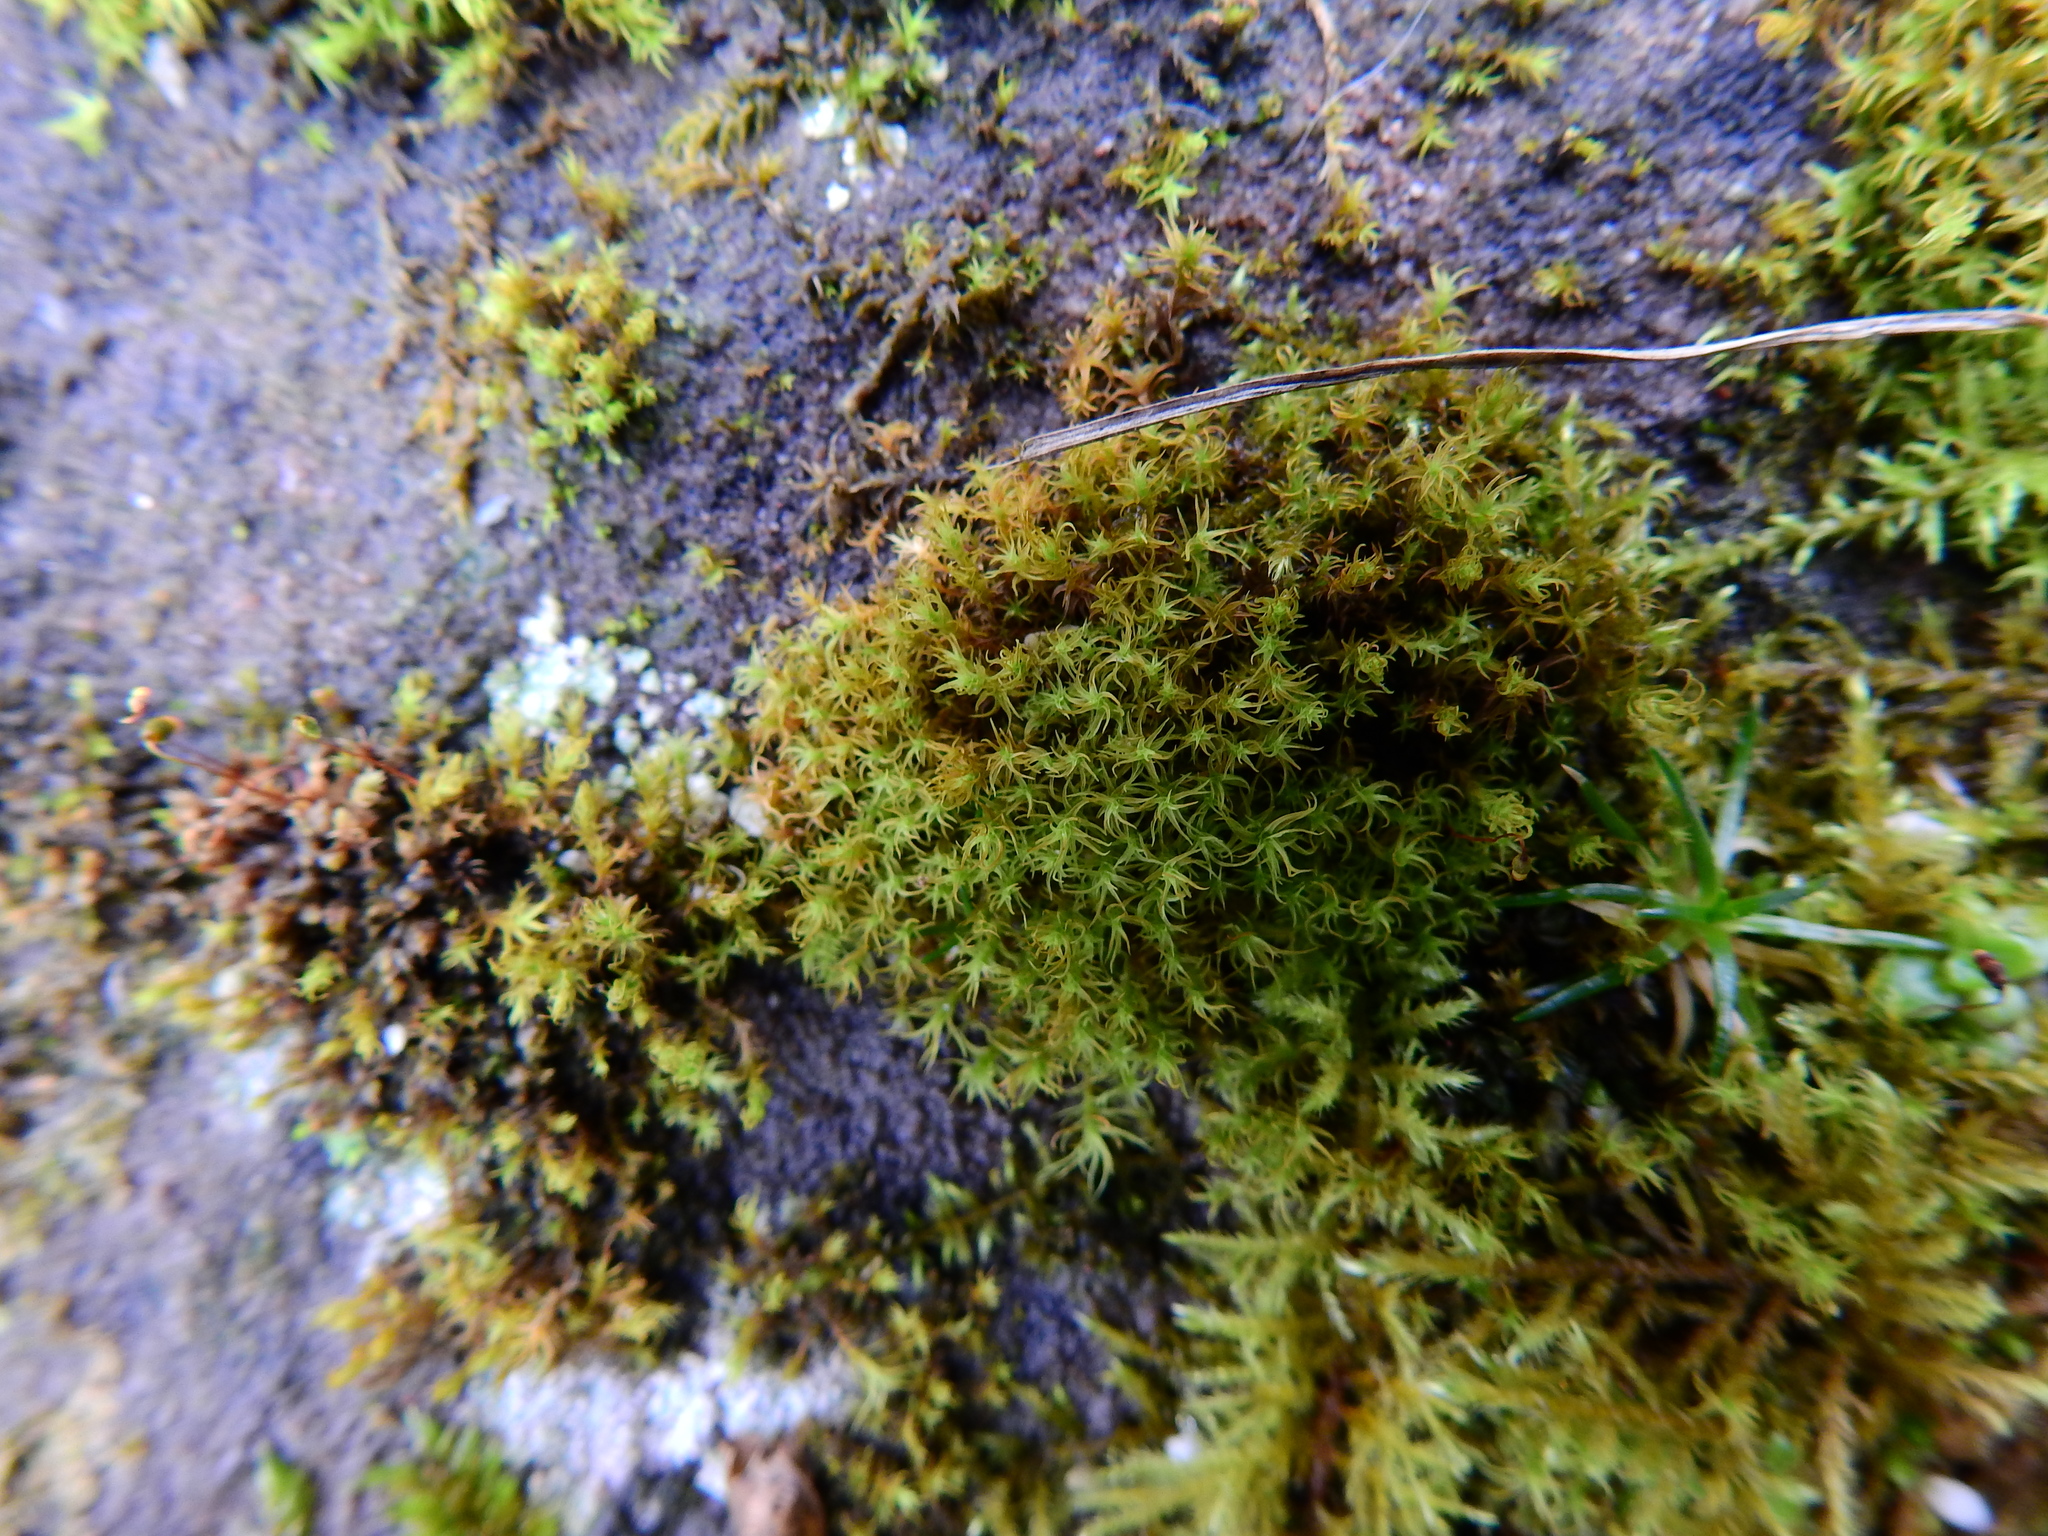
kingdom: Plantae
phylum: Bryophyta
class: Bryopsida
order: Pottiales
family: Pottiaceae
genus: Vinealobryum
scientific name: Vinealobryum insulanum
